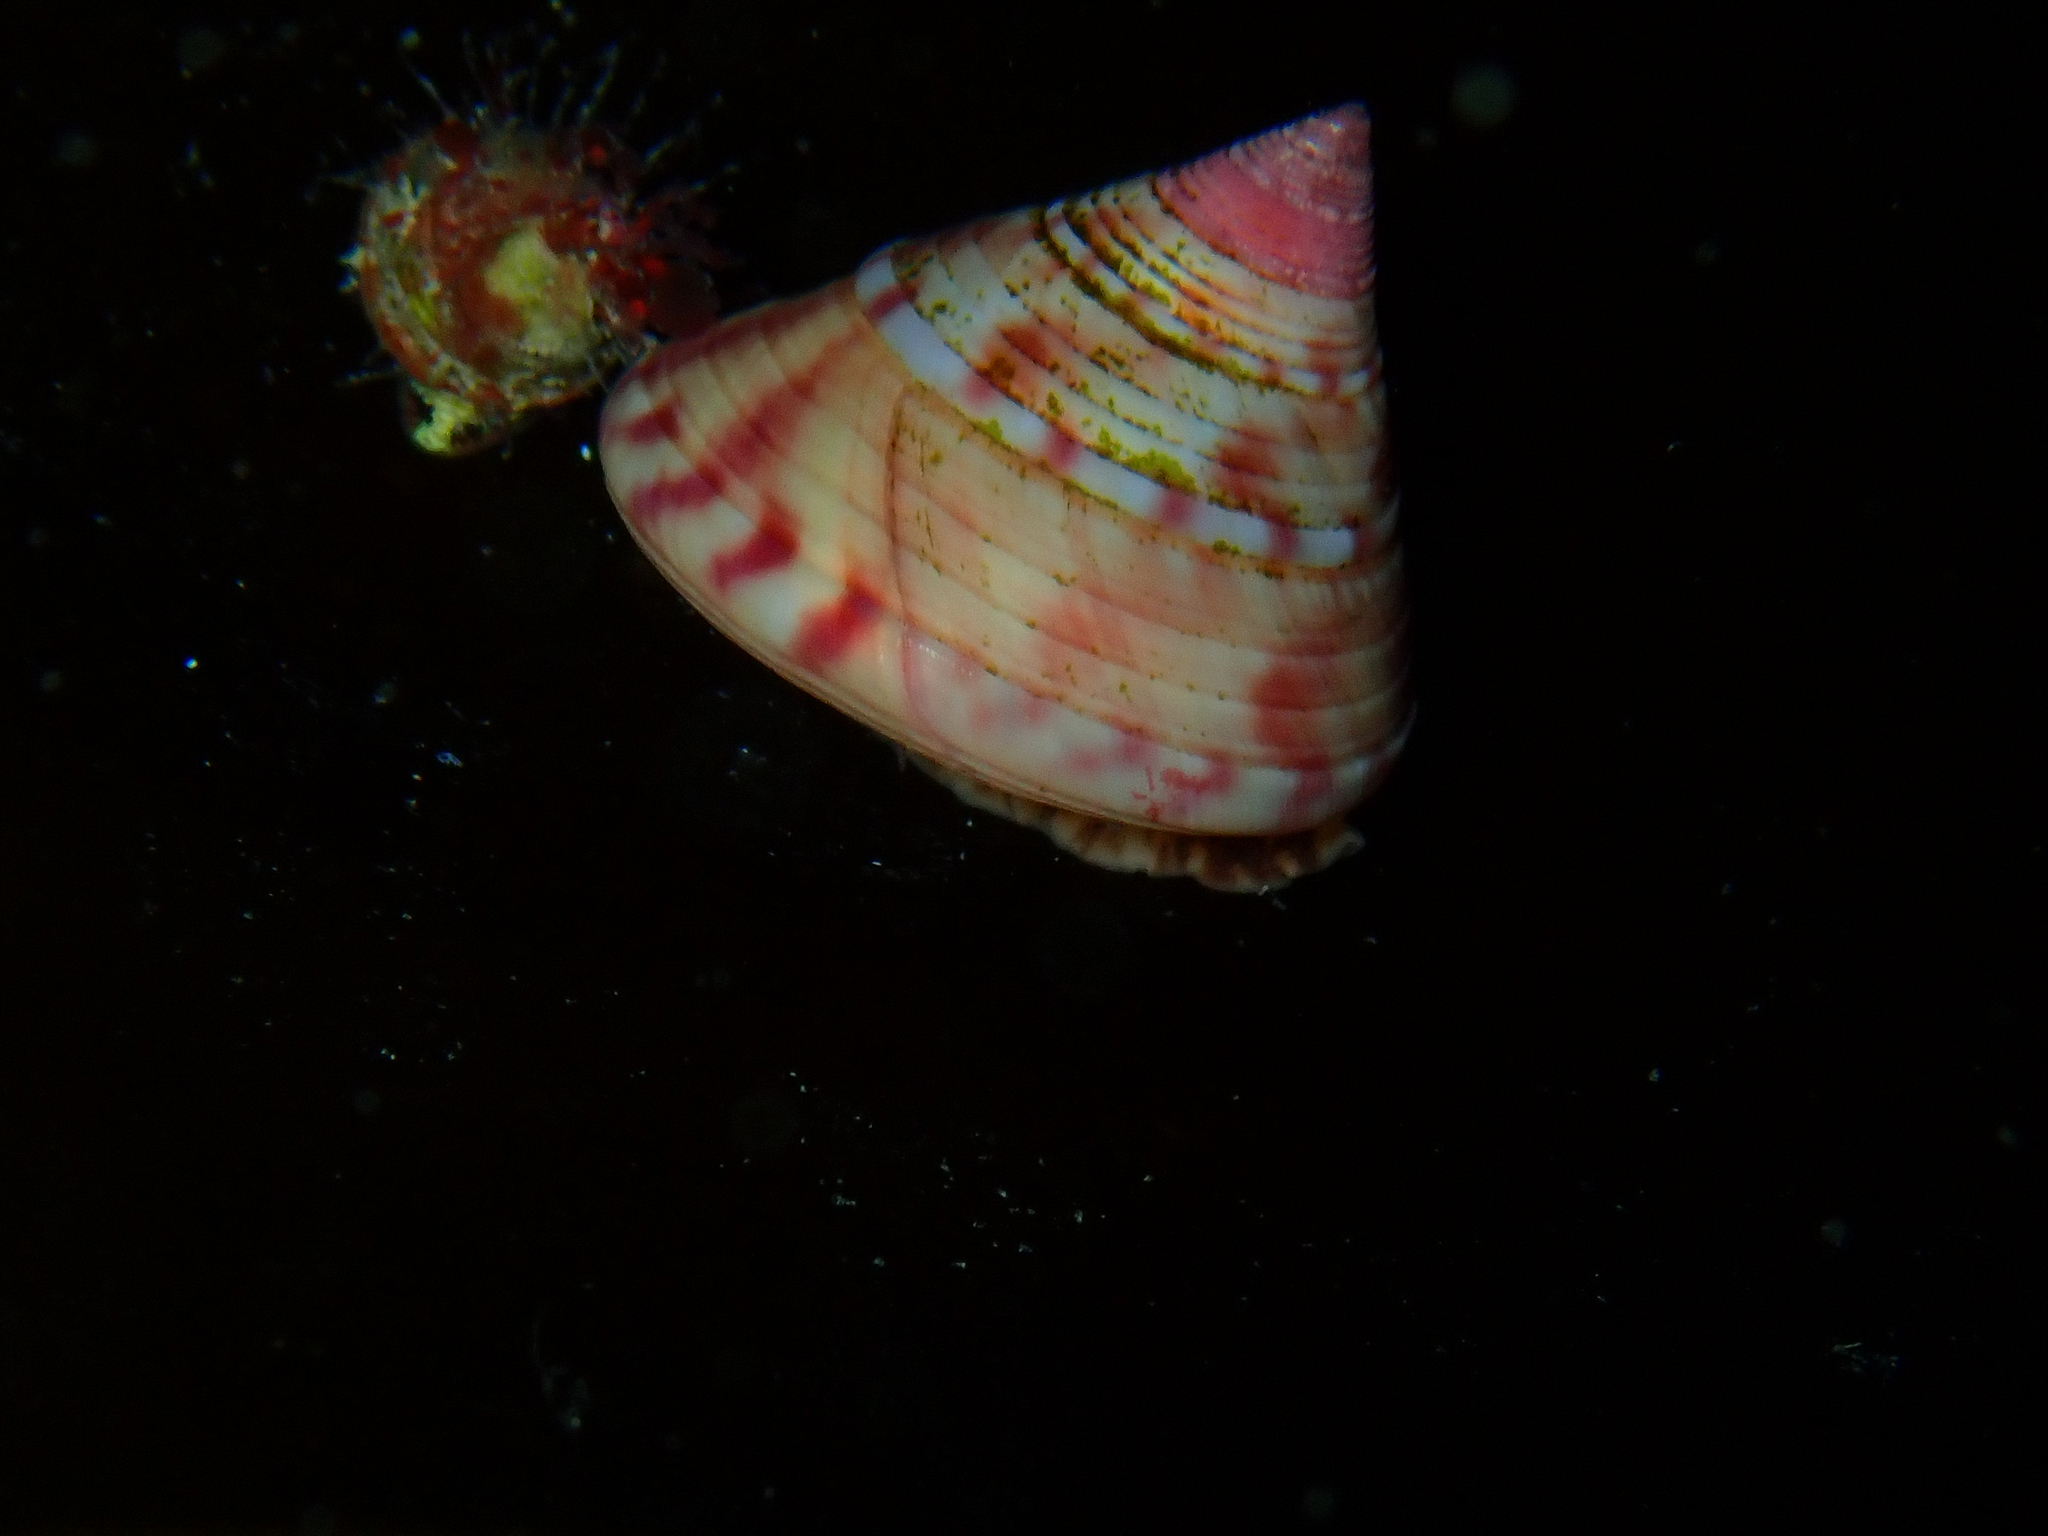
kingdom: Animalia
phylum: Mollusca
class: Gastropoda
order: Trochida
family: Calliostomatidae
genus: Calliostoma
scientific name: Calliostoma zizyphinum
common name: Painted top shell
